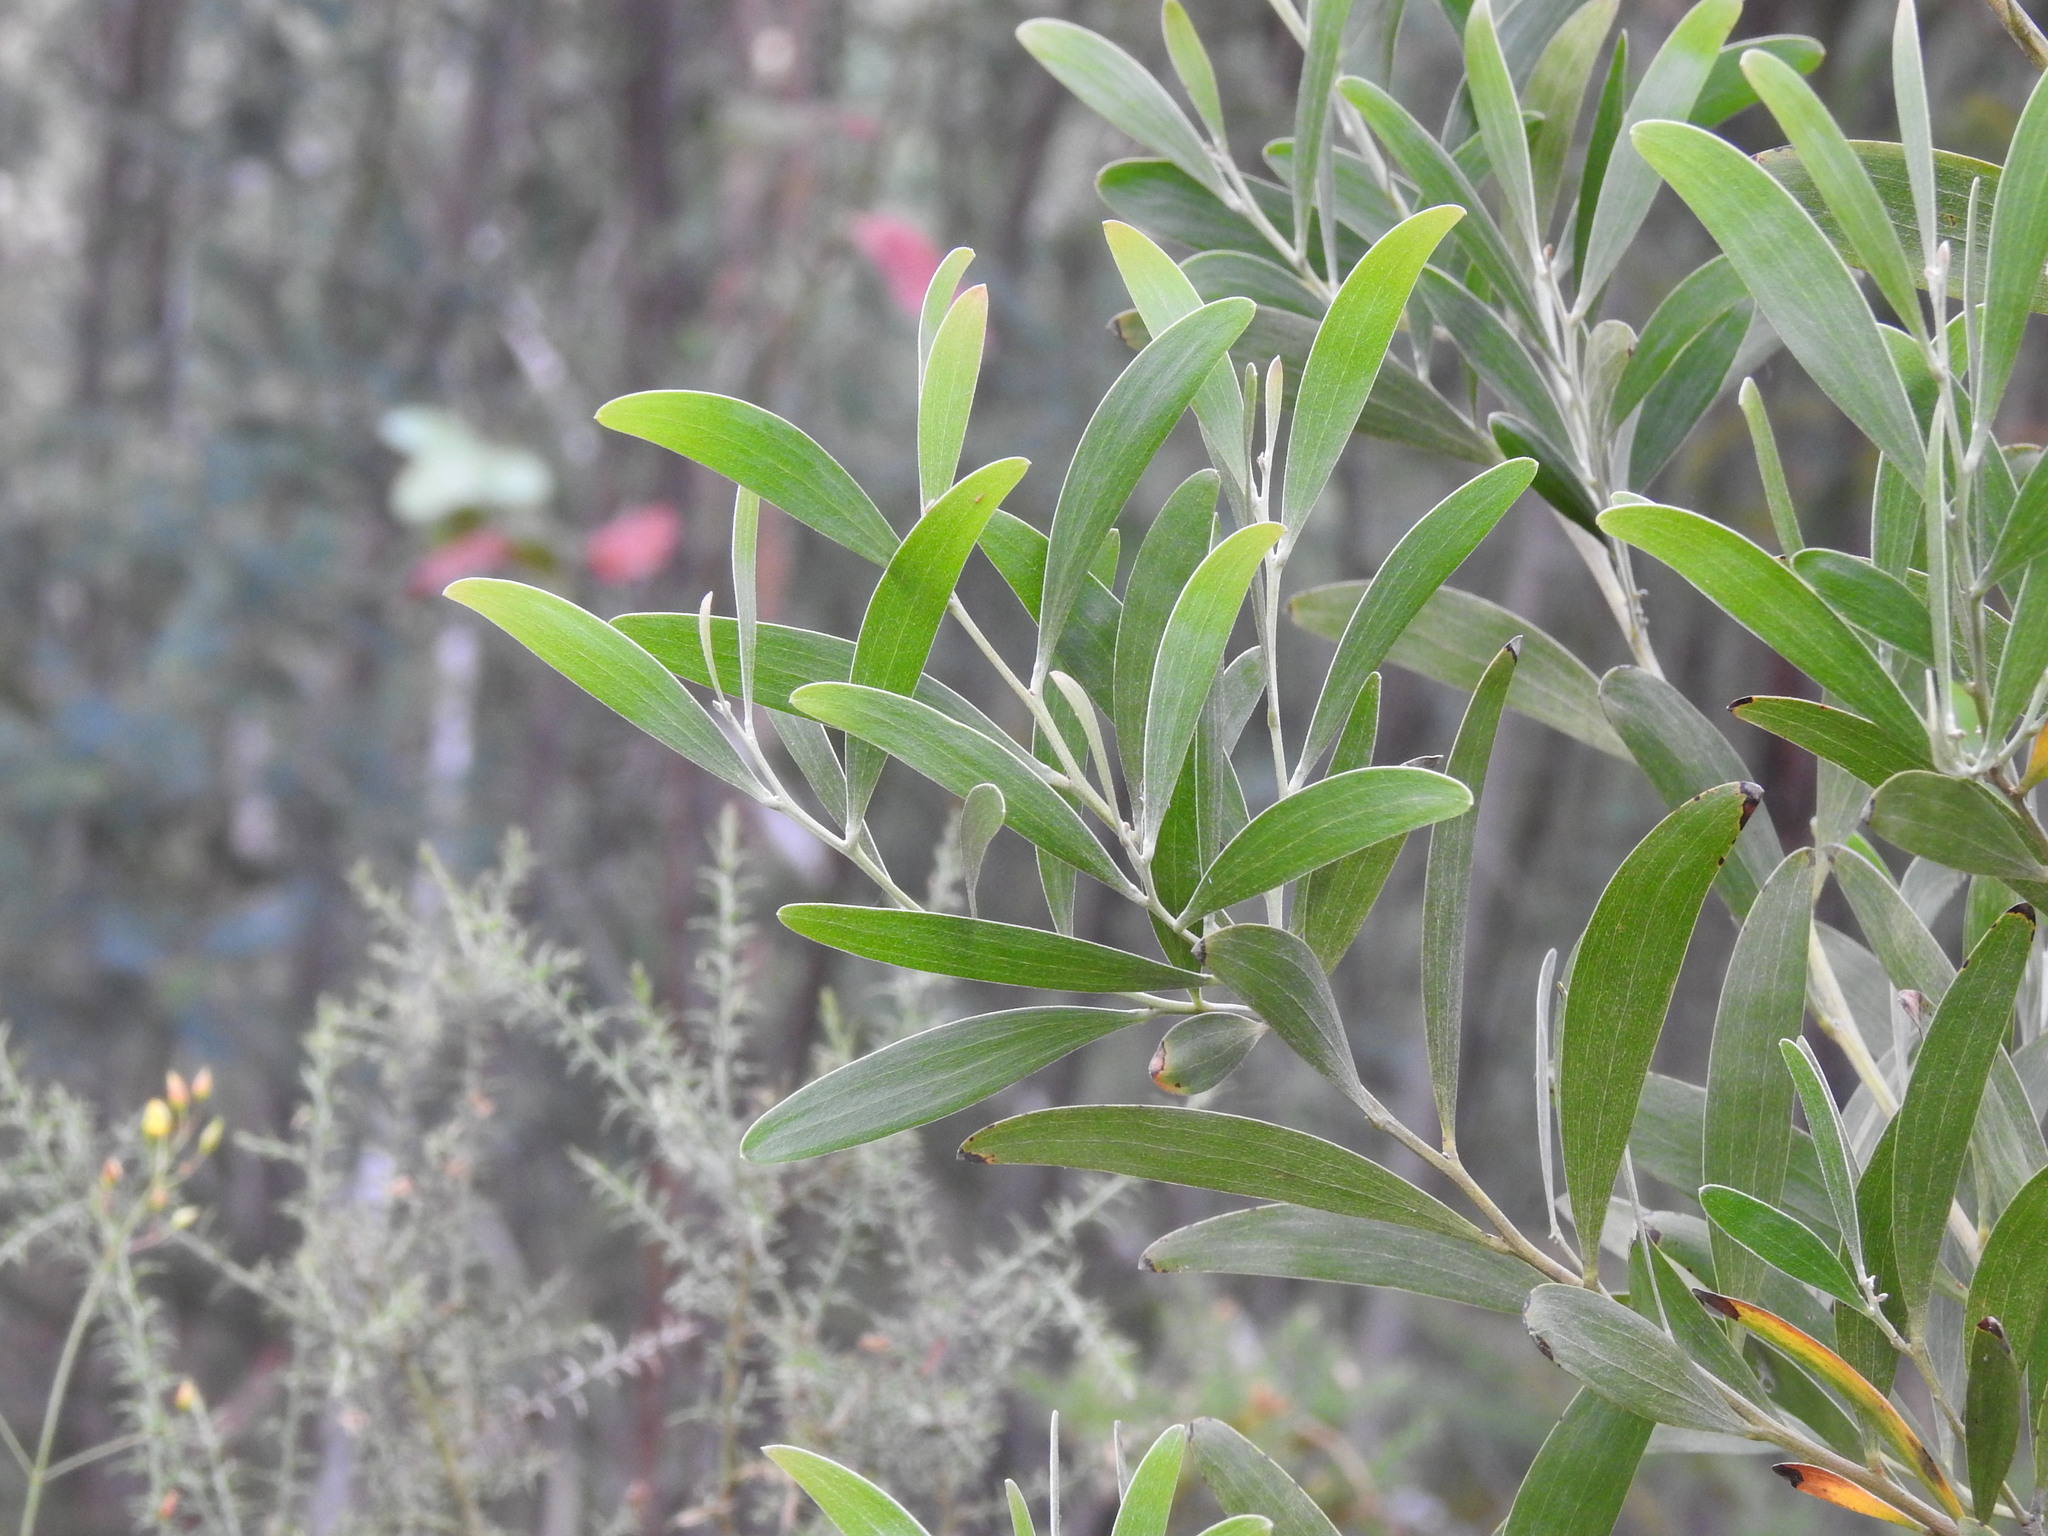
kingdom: Plantae
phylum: Tracheophyta
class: Magnoliopsida
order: Fabales
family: Fabaceae
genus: Acacia
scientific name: Acacia melanoxylon
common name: Blackwood
